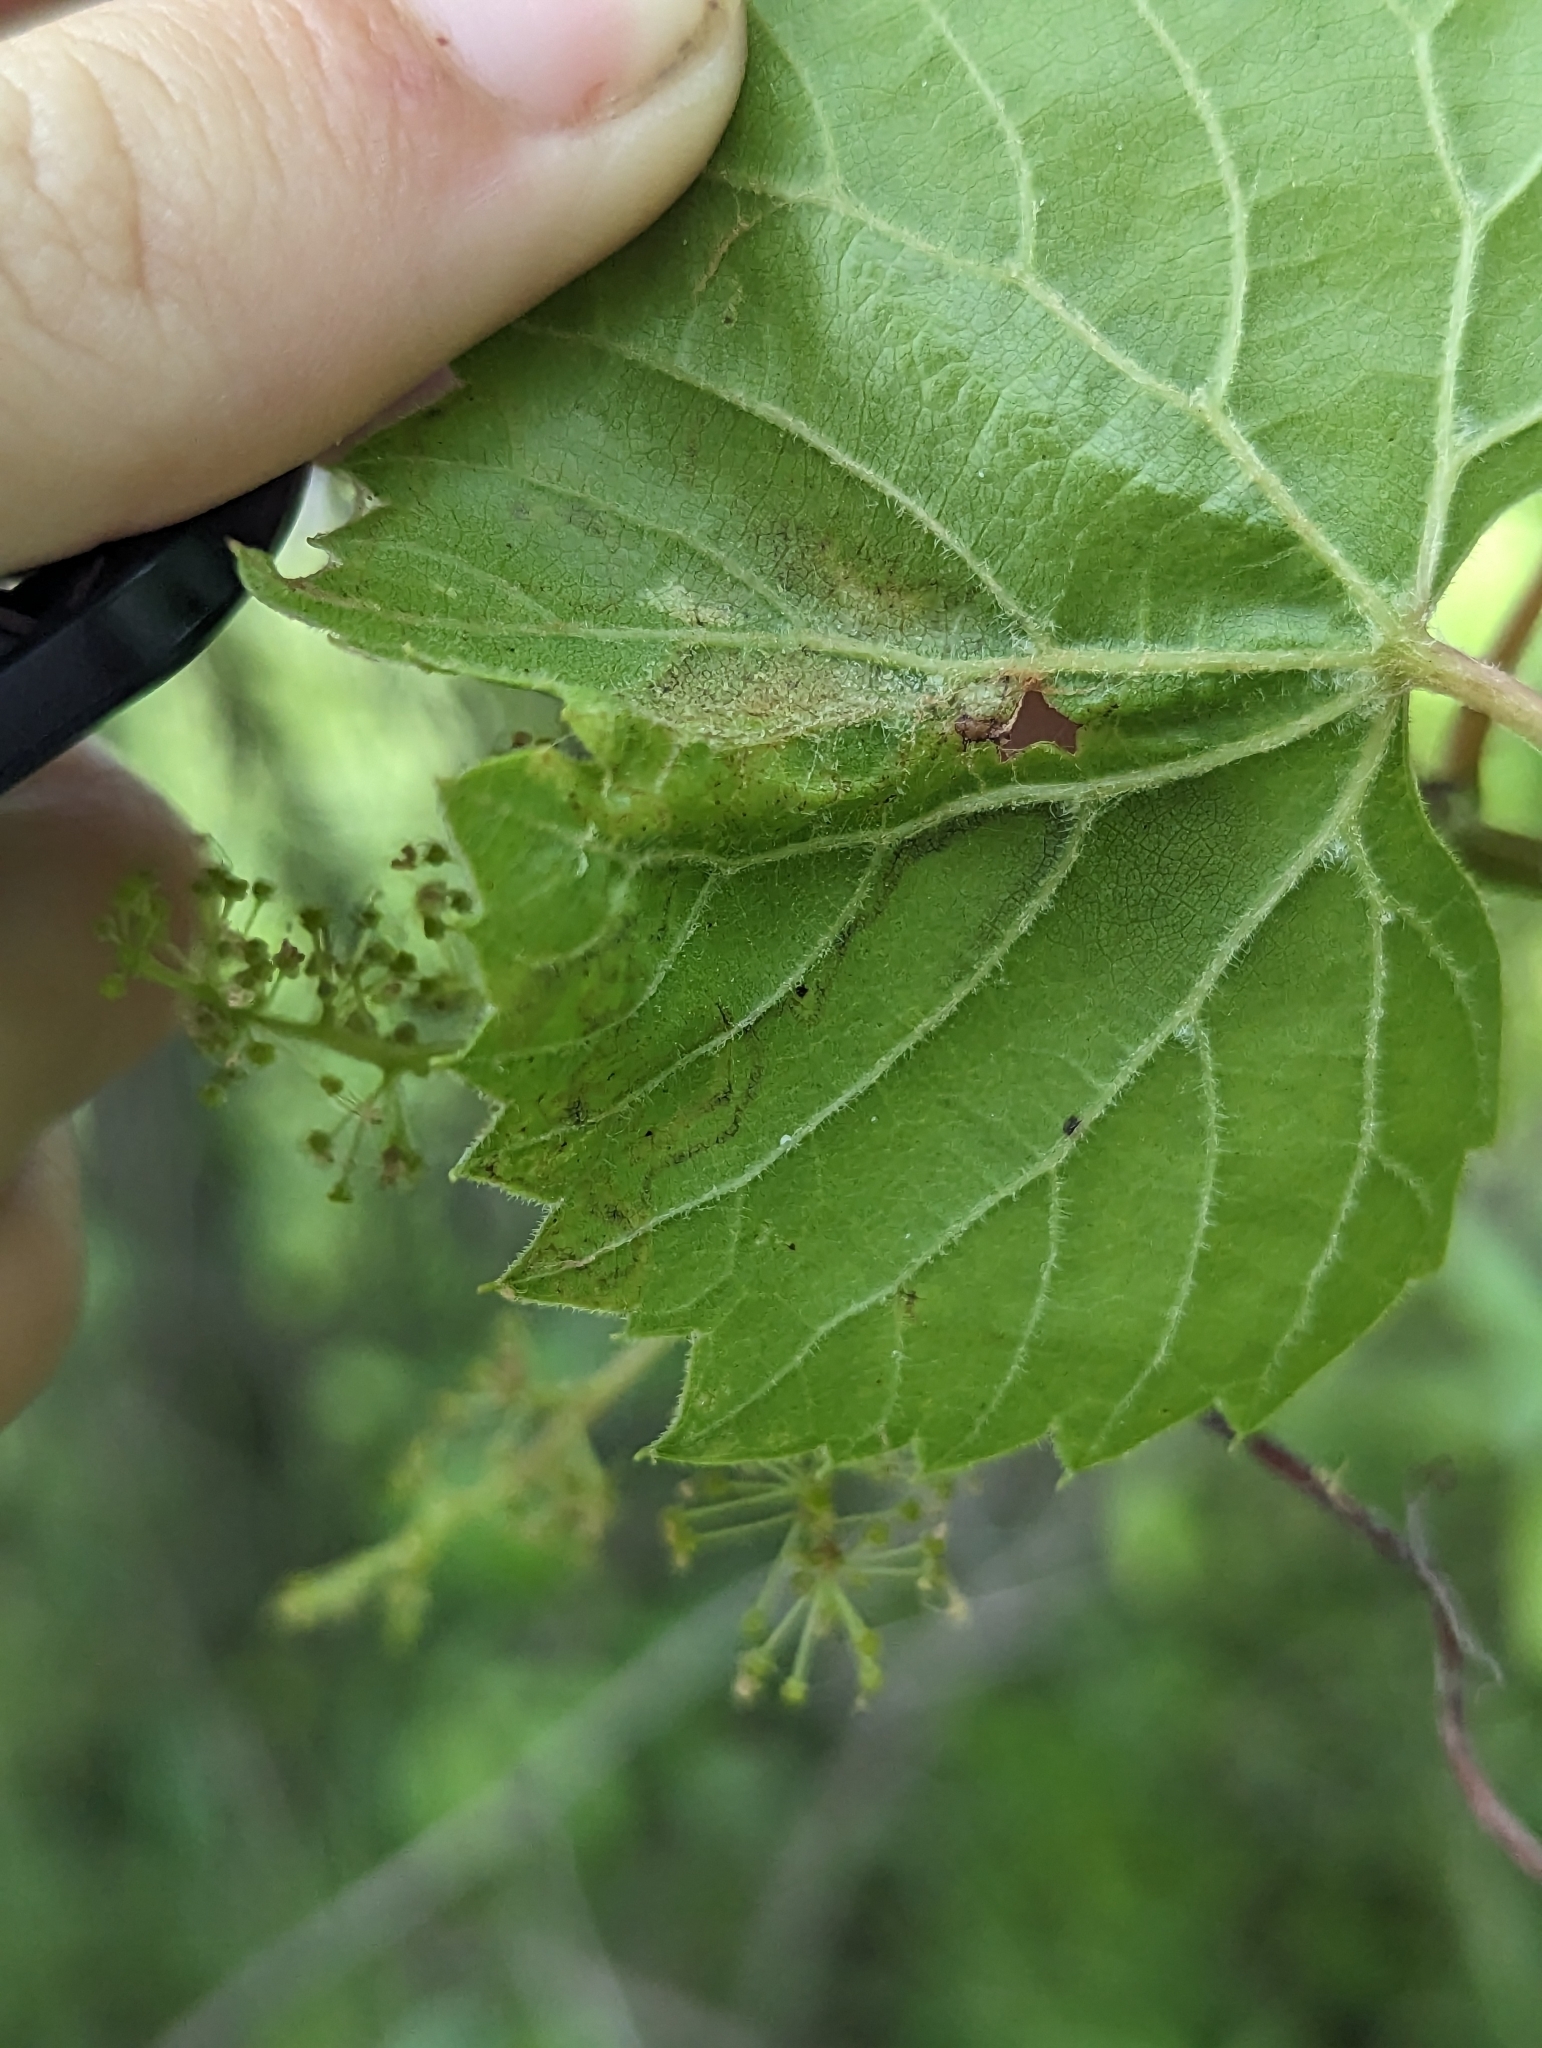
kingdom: Animalia
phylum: Arthropoda
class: Insecta
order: Lepidoptera
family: Gracillariidae
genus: Phyllocnistis
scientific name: Phyllocnistis vitifoliella
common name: Grape leaf-miner moth
